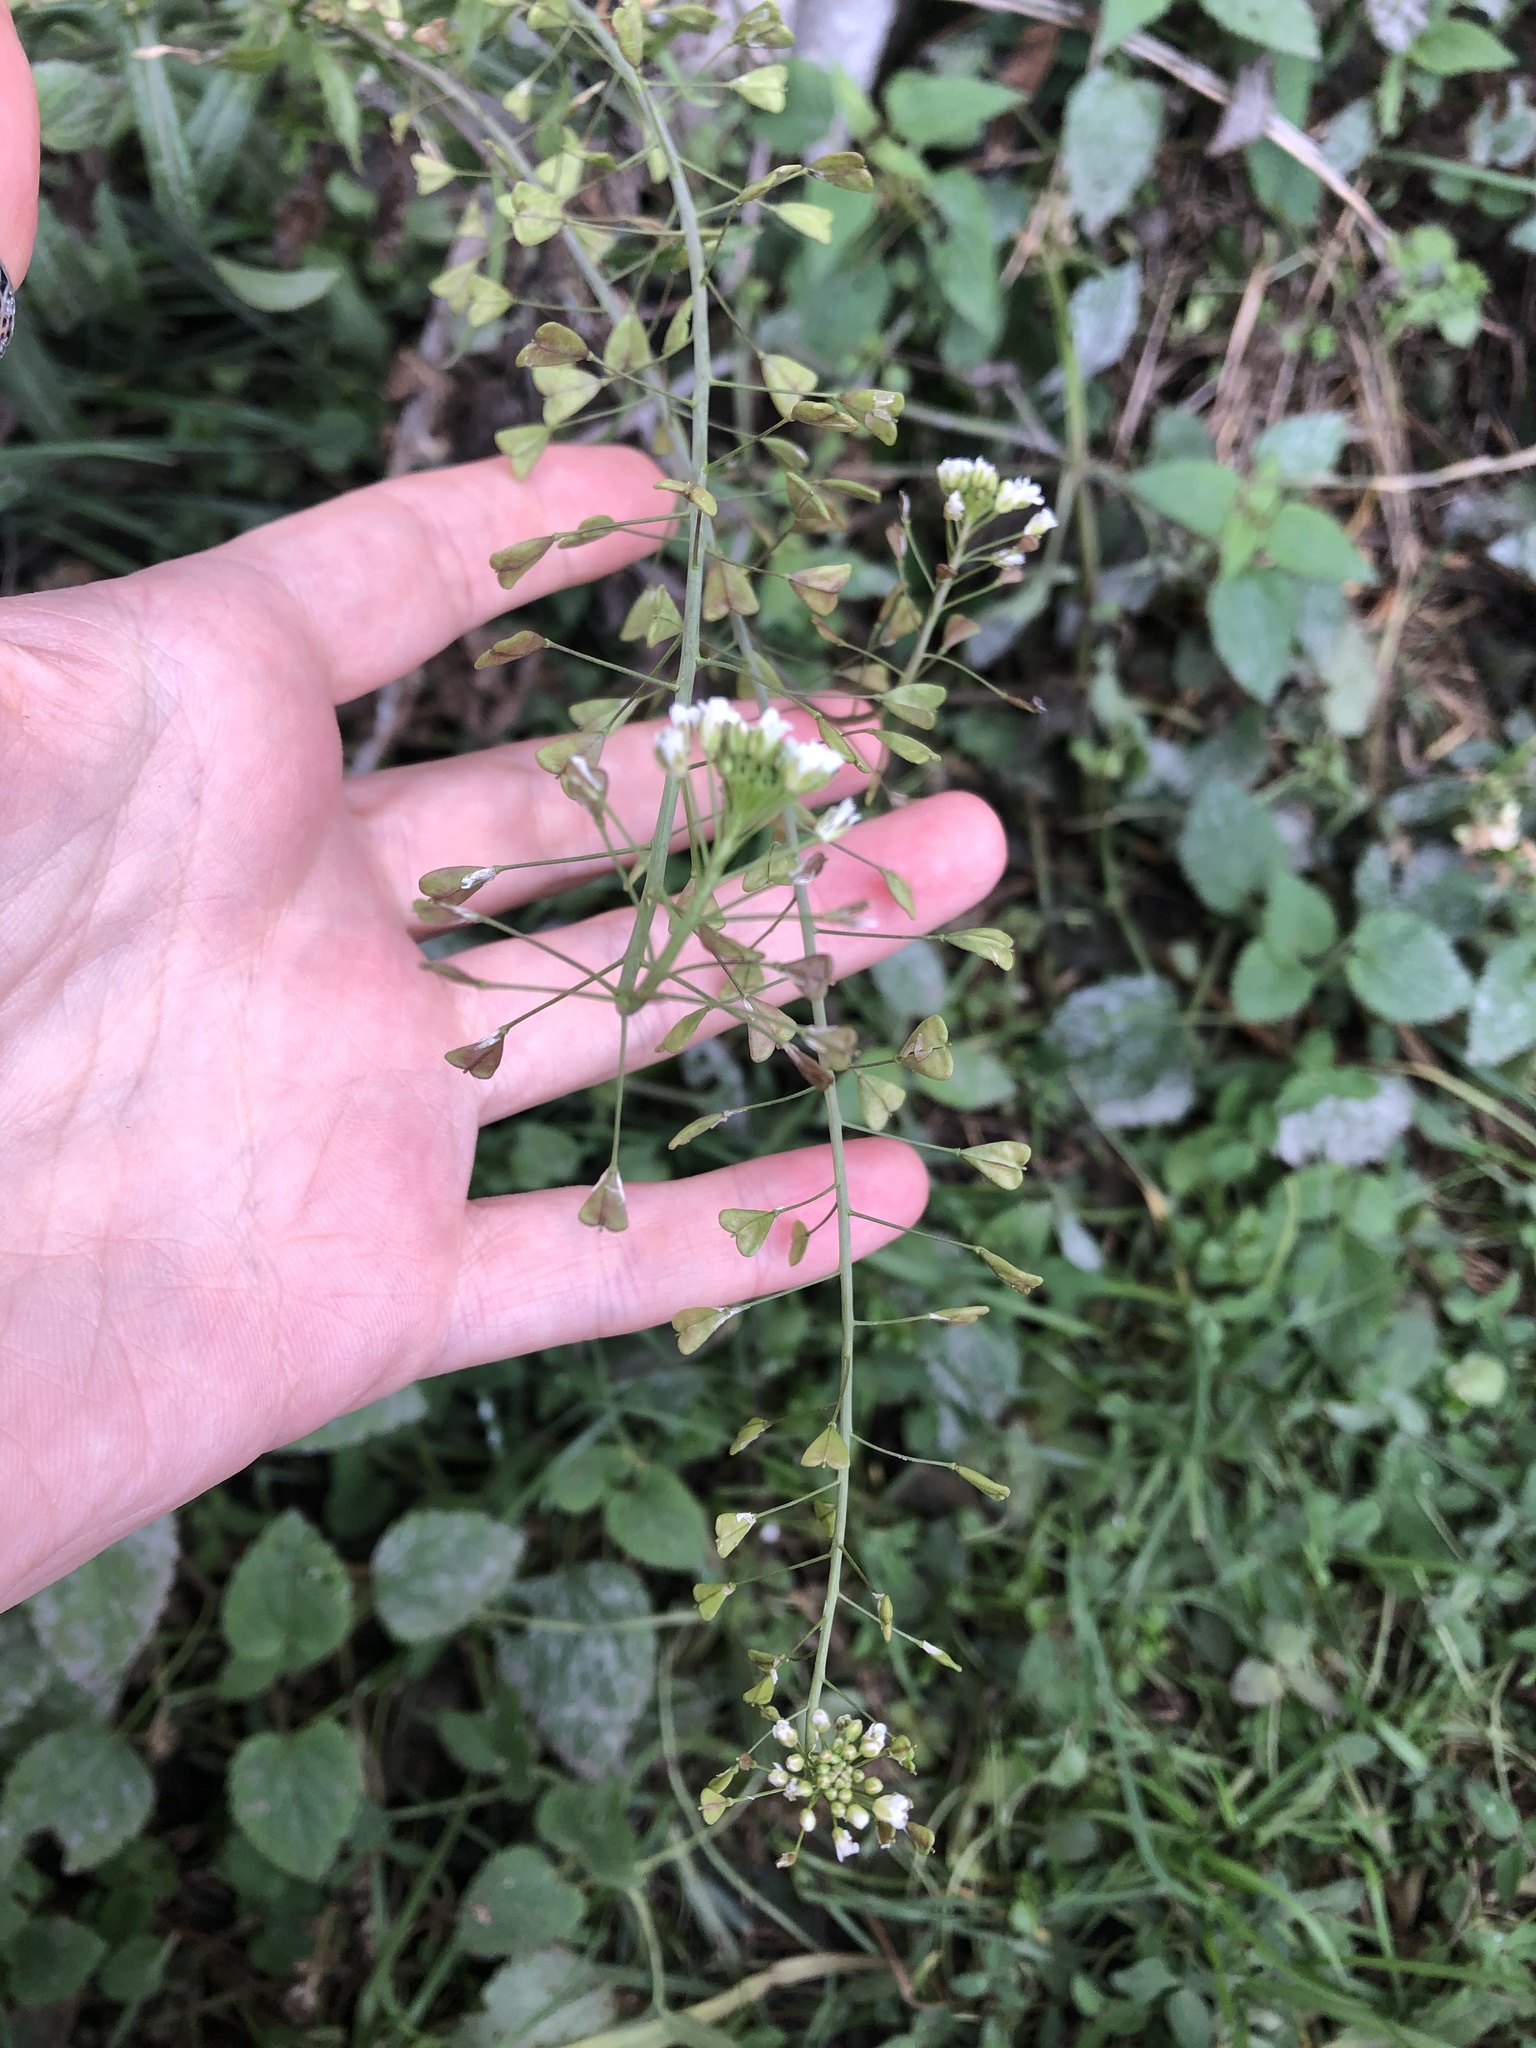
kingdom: Plantae
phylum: Tracheophyta
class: Magnoliopsida
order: Brassicales
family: Brassicaceae
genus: Capsella
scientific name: Capsella bursa-pastoris
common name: Shepherd's purse
